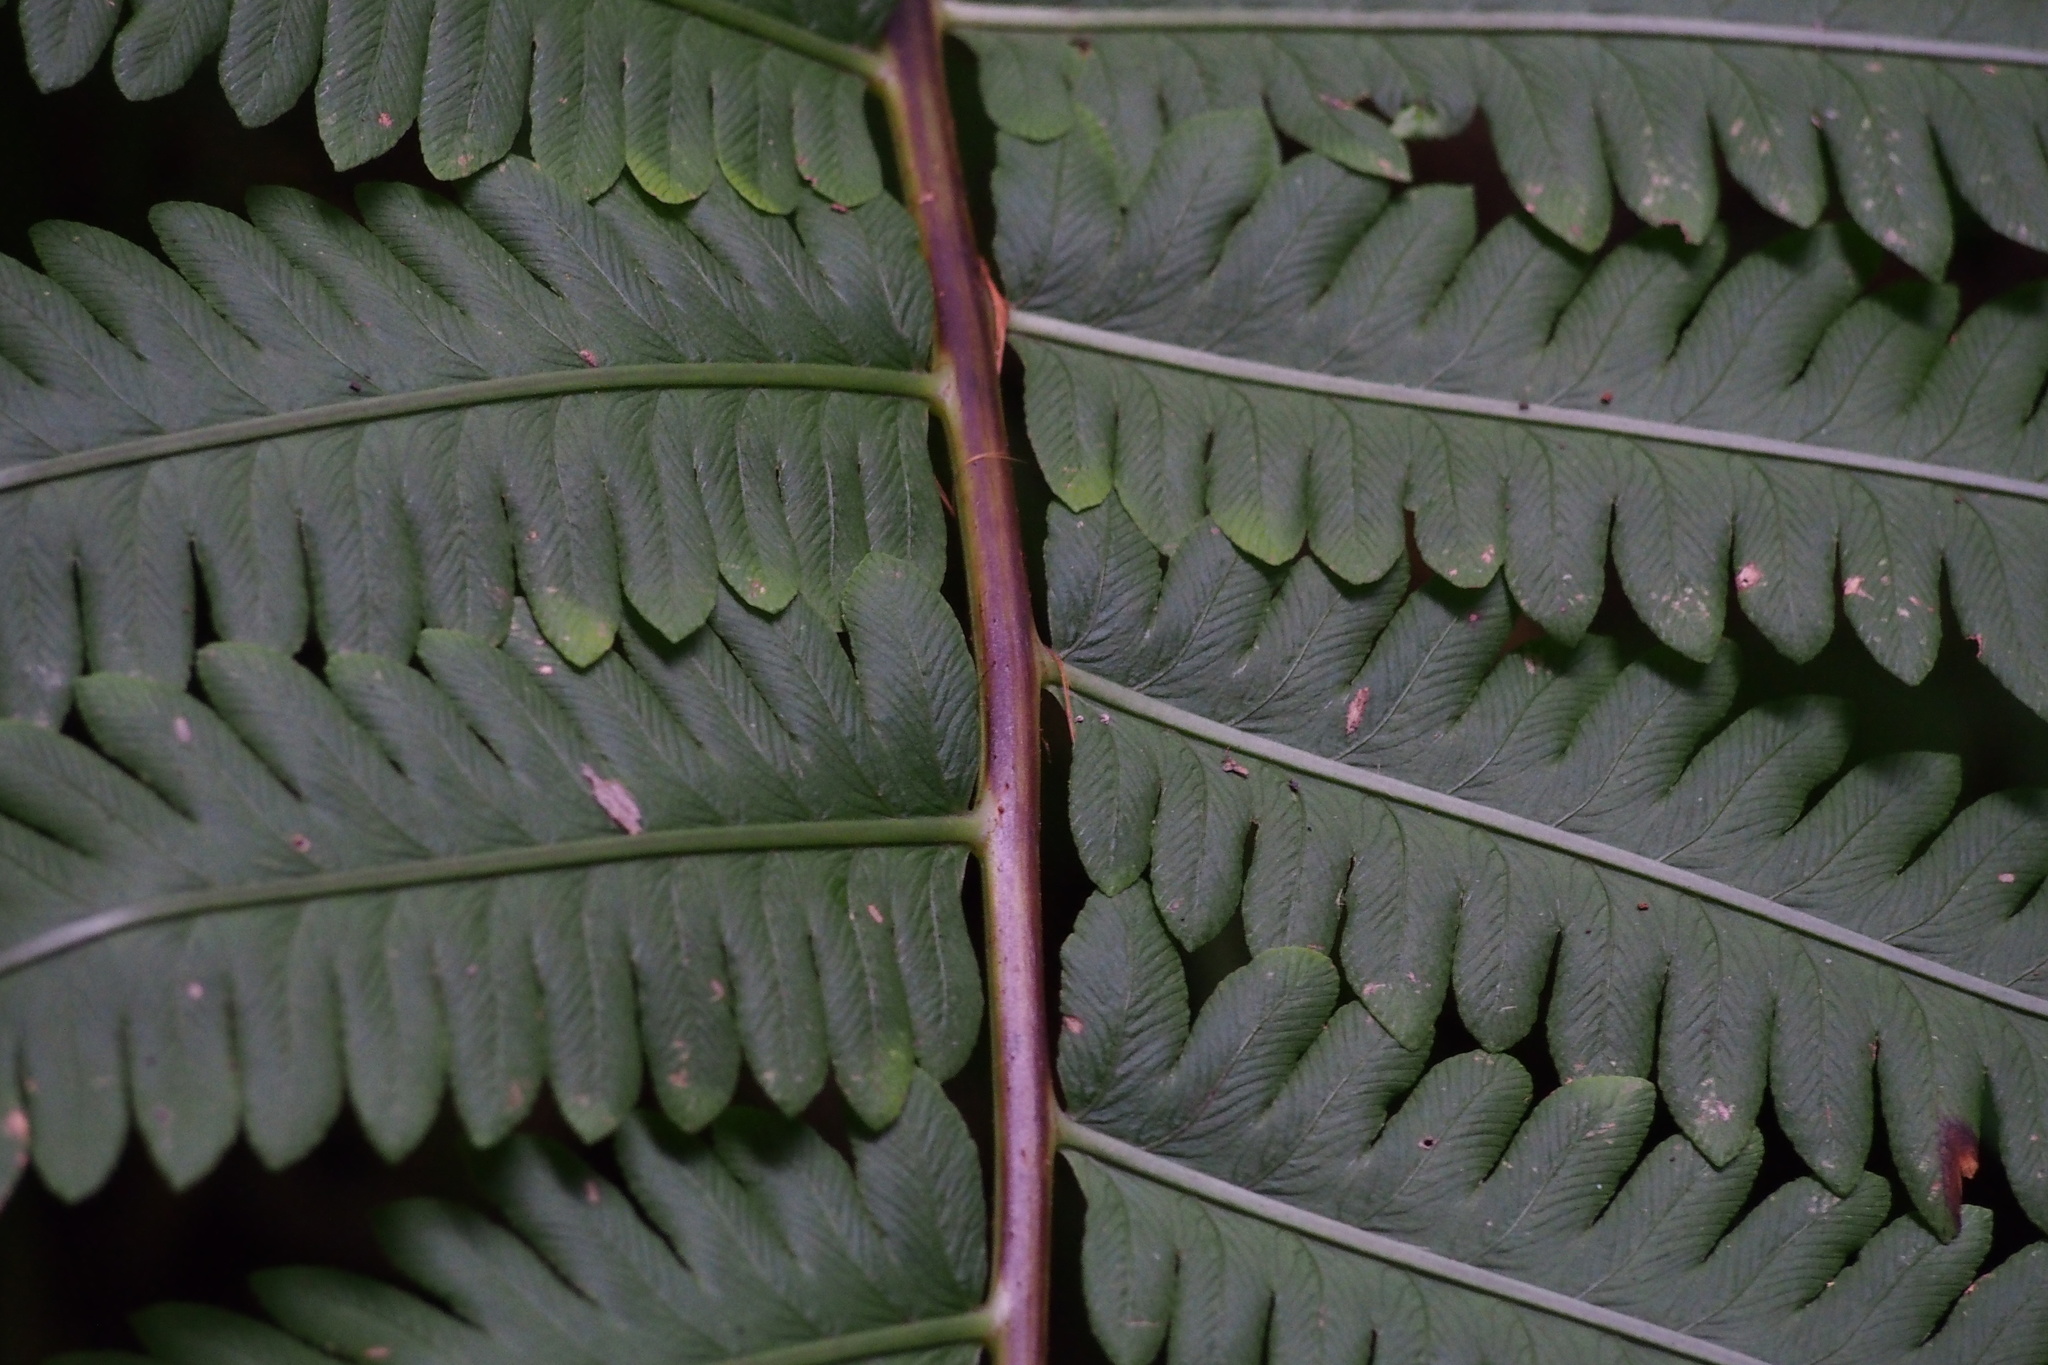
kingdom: Plantae
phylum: Tracheophyta
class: Polypodiopsida
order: Polypodiales
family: Onocleaceae
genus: Pentarhizidium
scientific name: Pentarhizidium orientale
